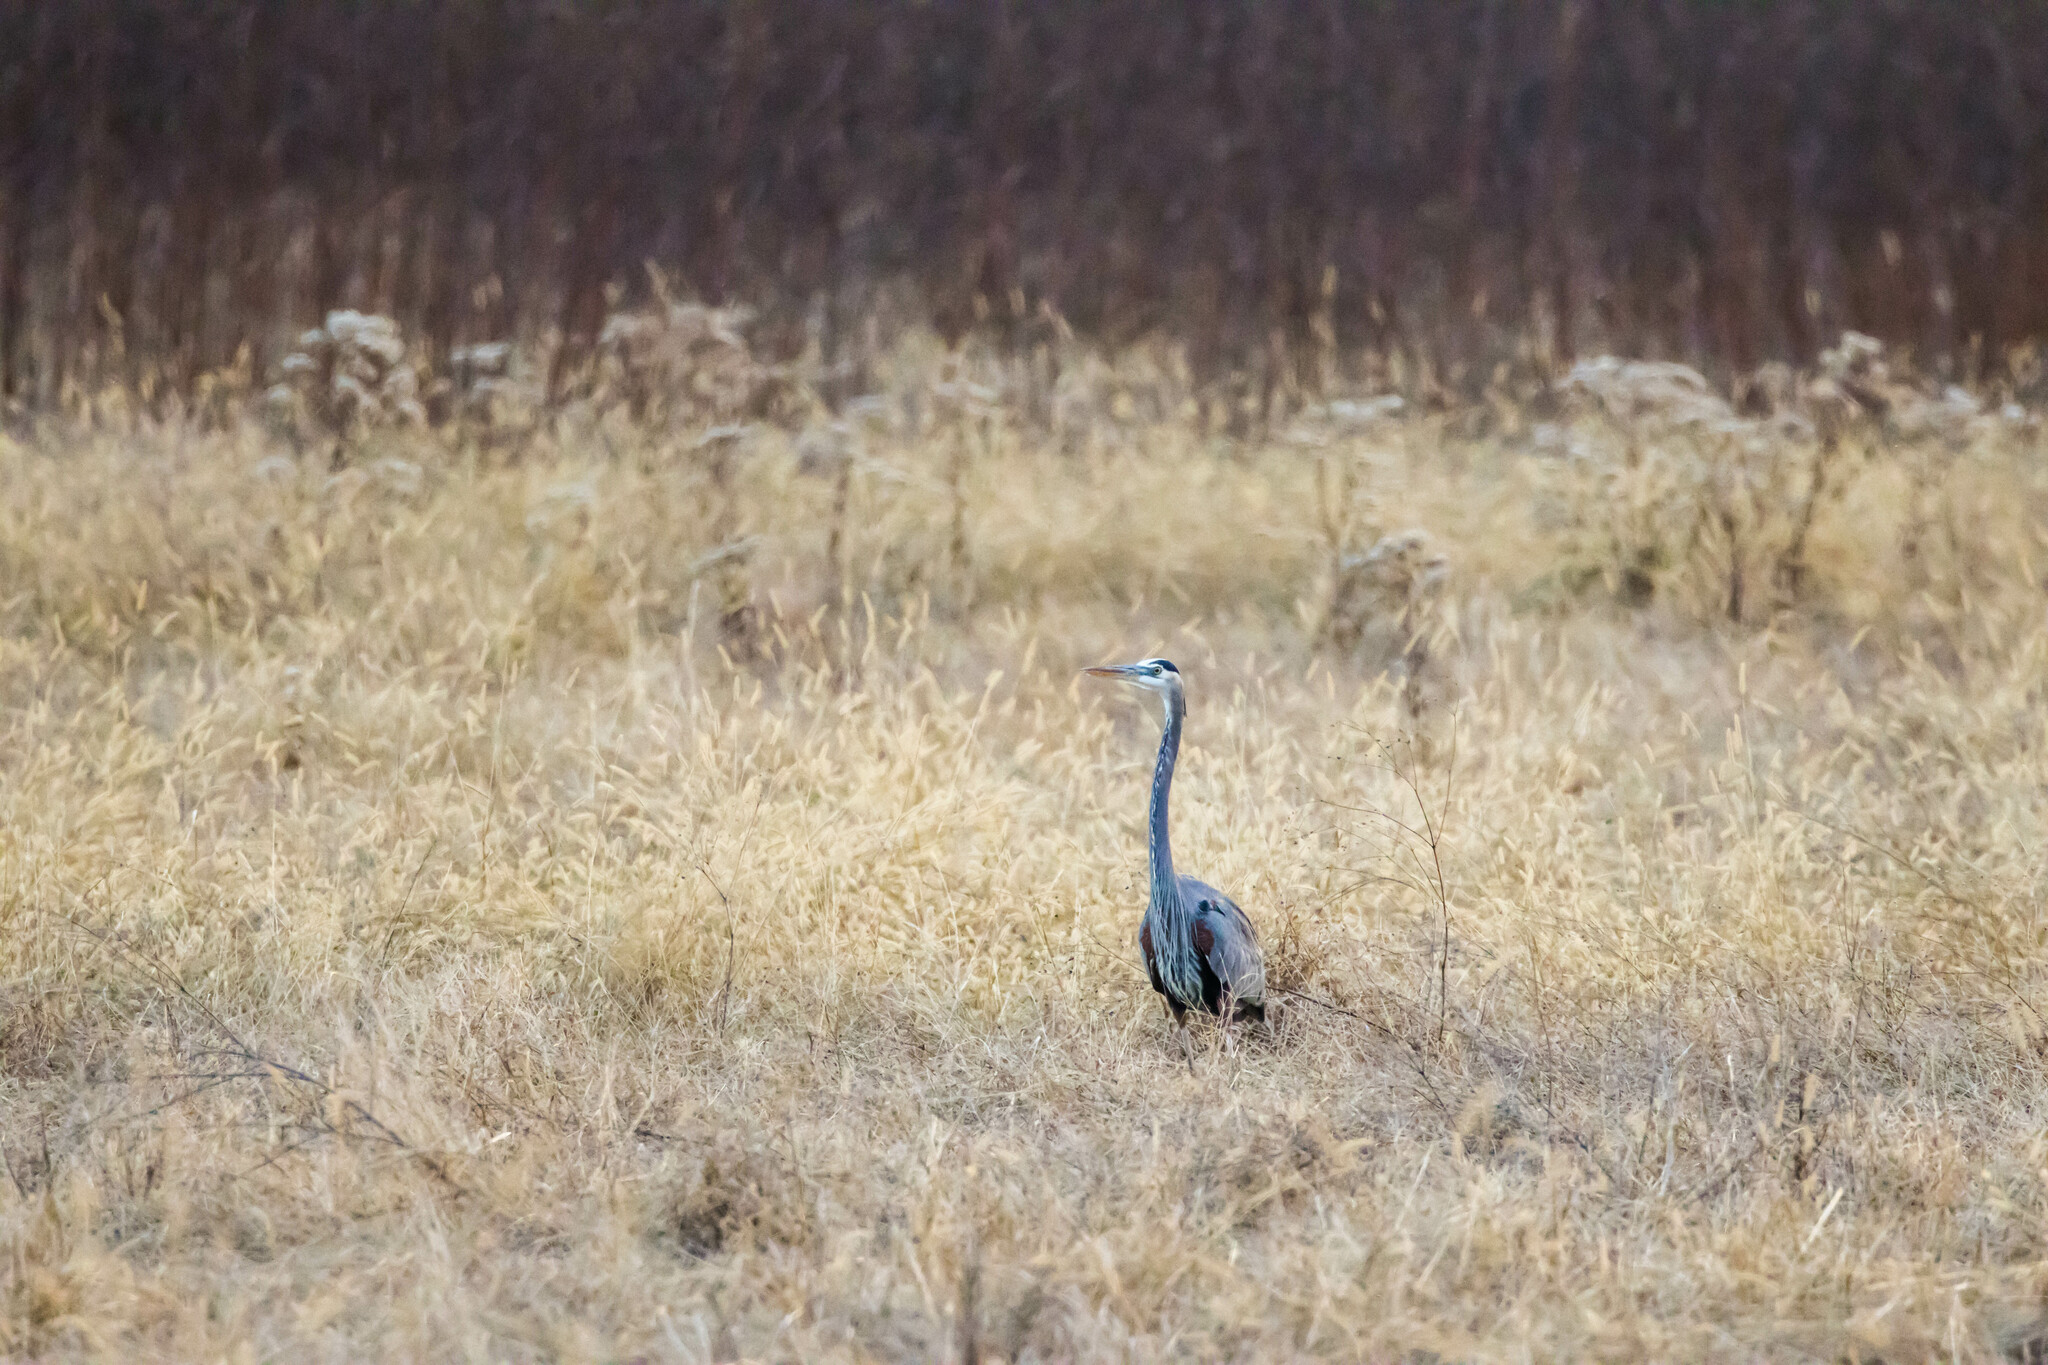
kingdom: Animalia
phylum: Chordata
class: Aves
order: Pelecaniformes
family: Ardeidae
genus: Ardea
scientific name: Ardea herodias
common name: Great blue heron
